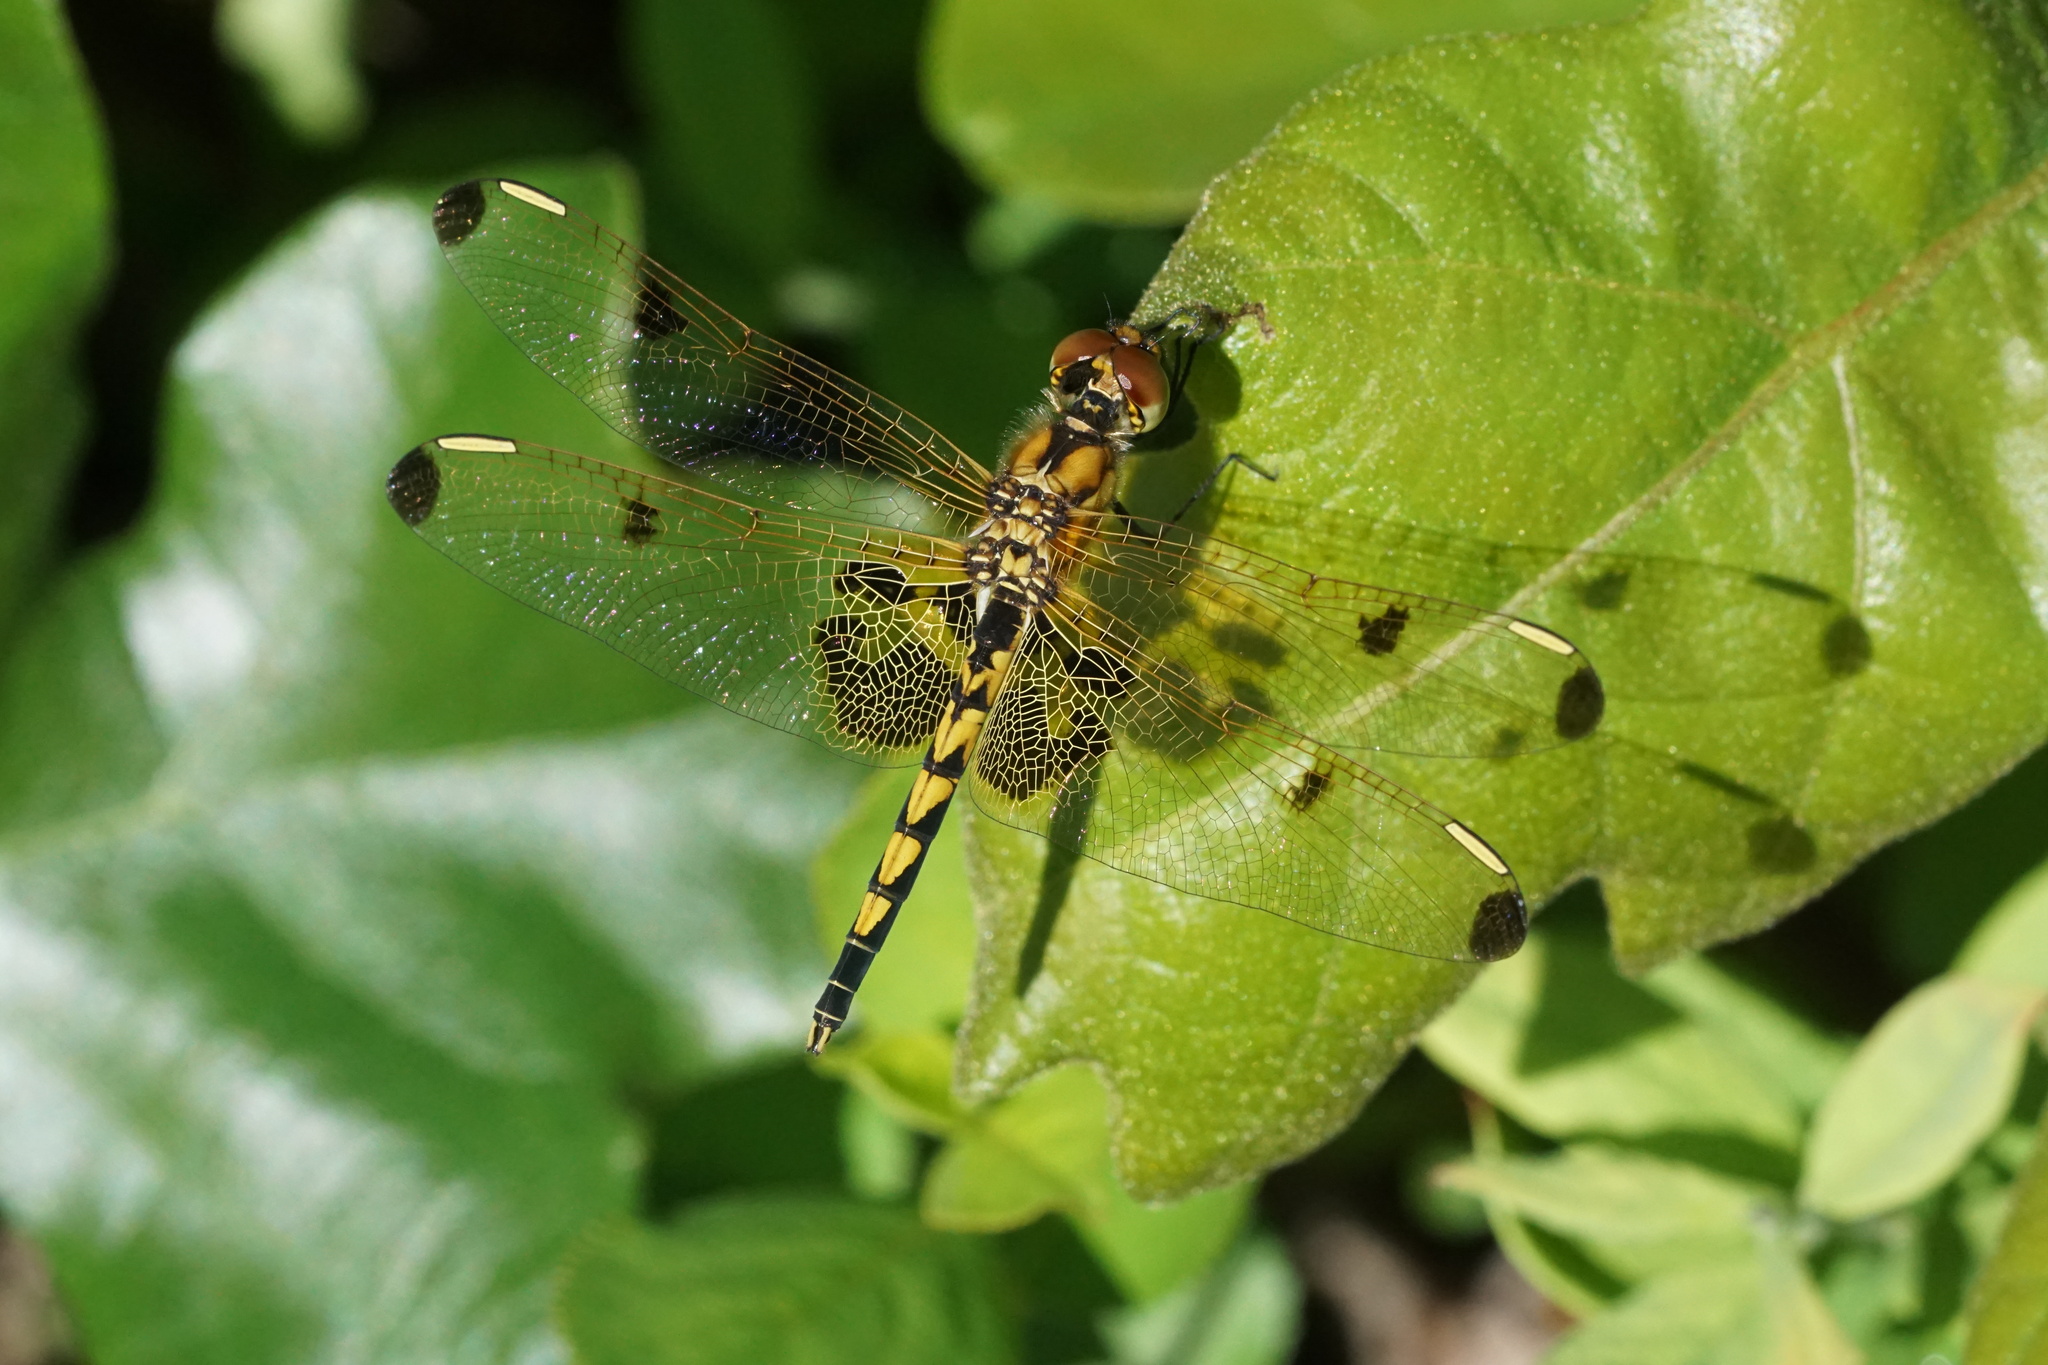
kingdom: Animalia
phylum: Arthropoda
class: Insecta
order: Odonata
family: Libellulidae
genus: Celithemis
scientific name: Celithemis elisa
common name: Calico pennant
